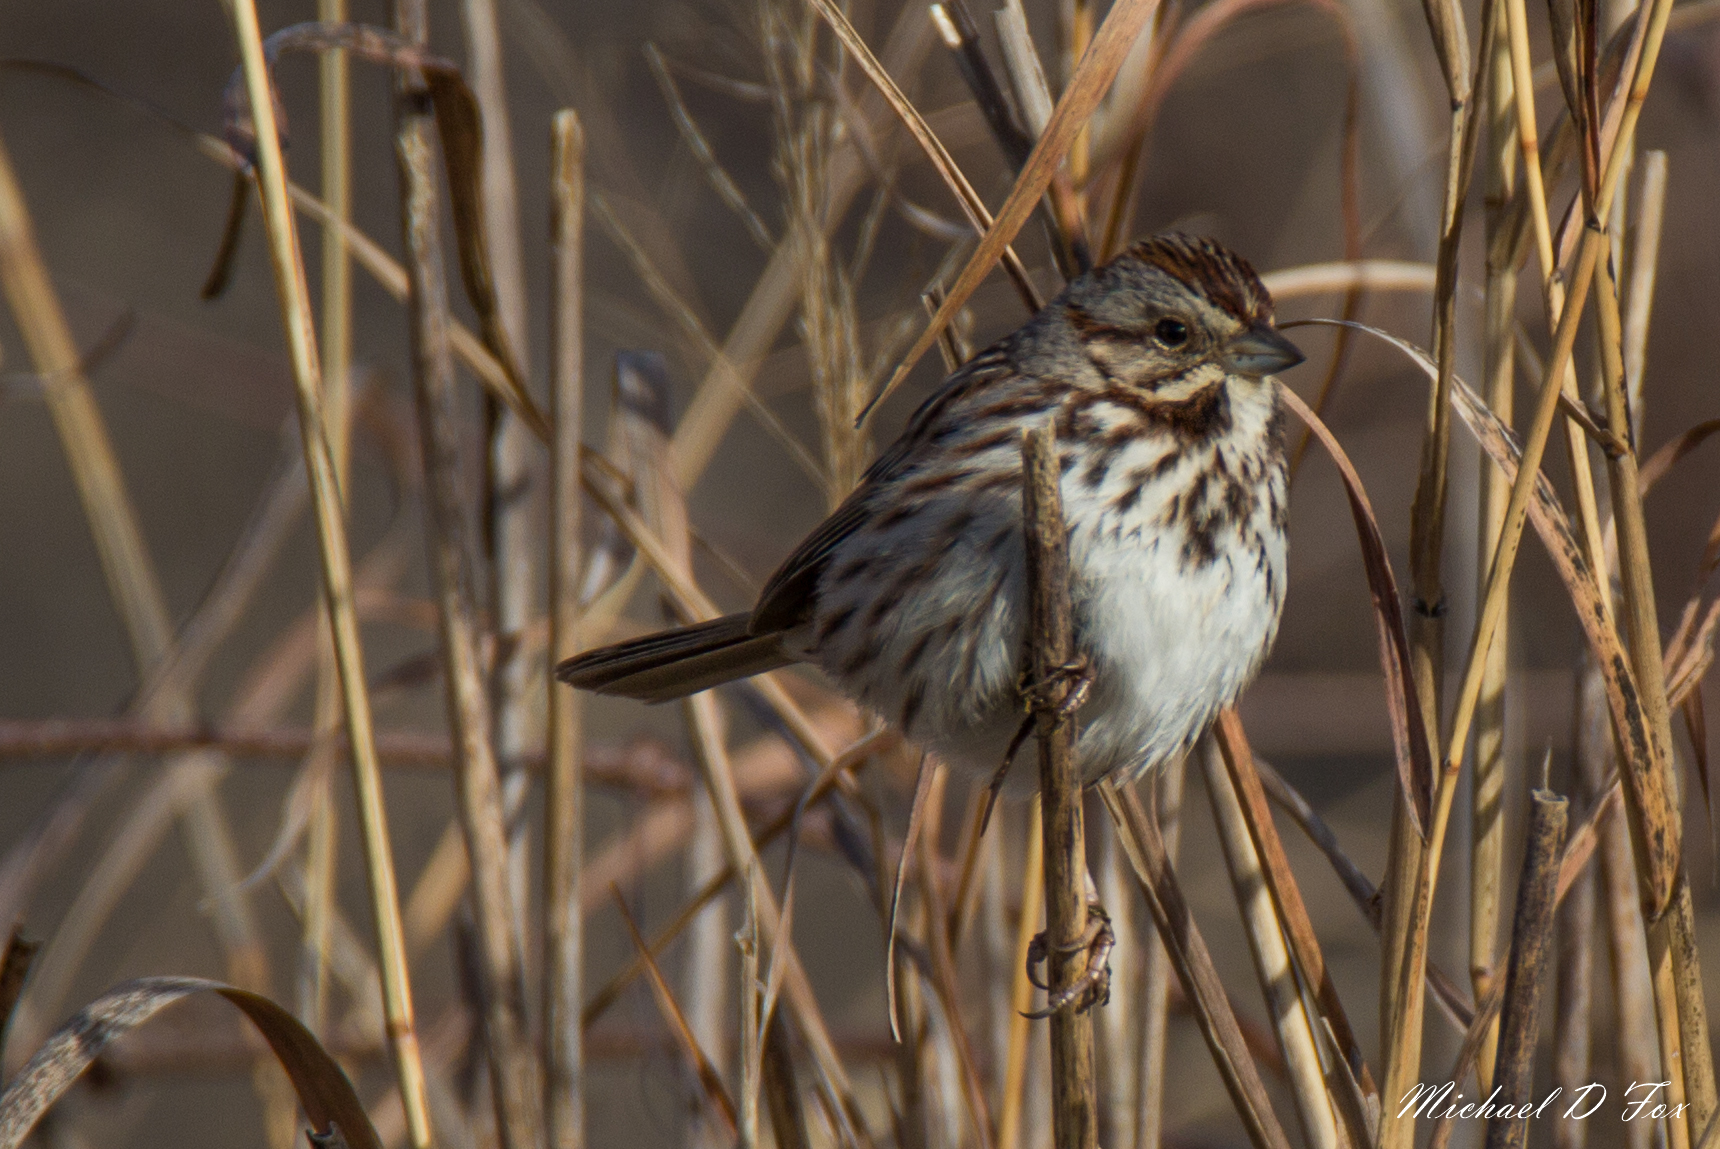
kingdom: Animalia
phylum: Chordata
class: Aves
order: Passeriformes
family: Passerellidae
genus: Melospiza
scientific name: Melospiza melodia
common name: Song sparrow
